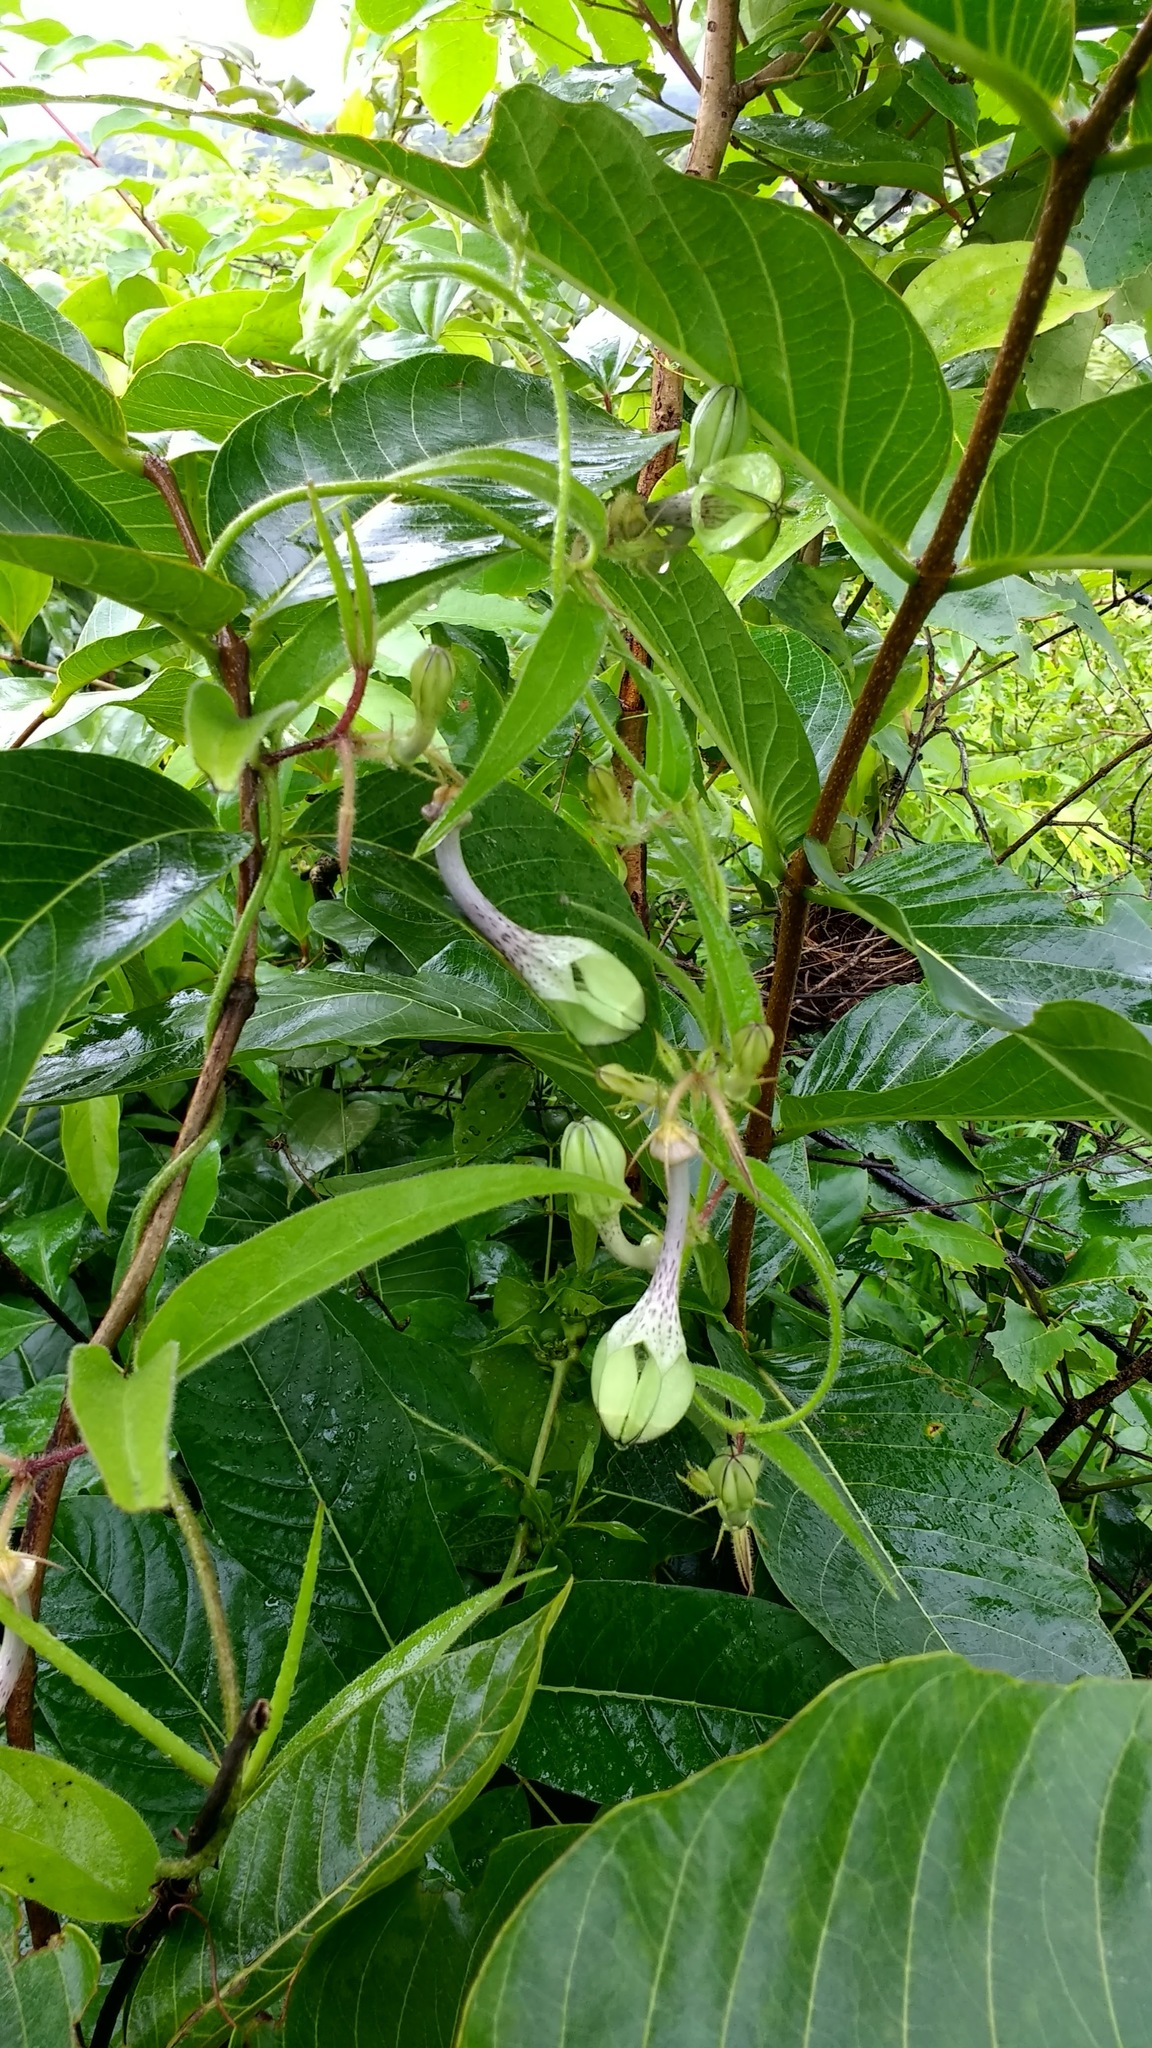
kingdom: Plantae
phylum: Tracheophyta
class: Magnoliopsida
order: Gentianales
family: Apocynaceae
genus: Ceropegia
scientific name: Ceropegia hirsuta
